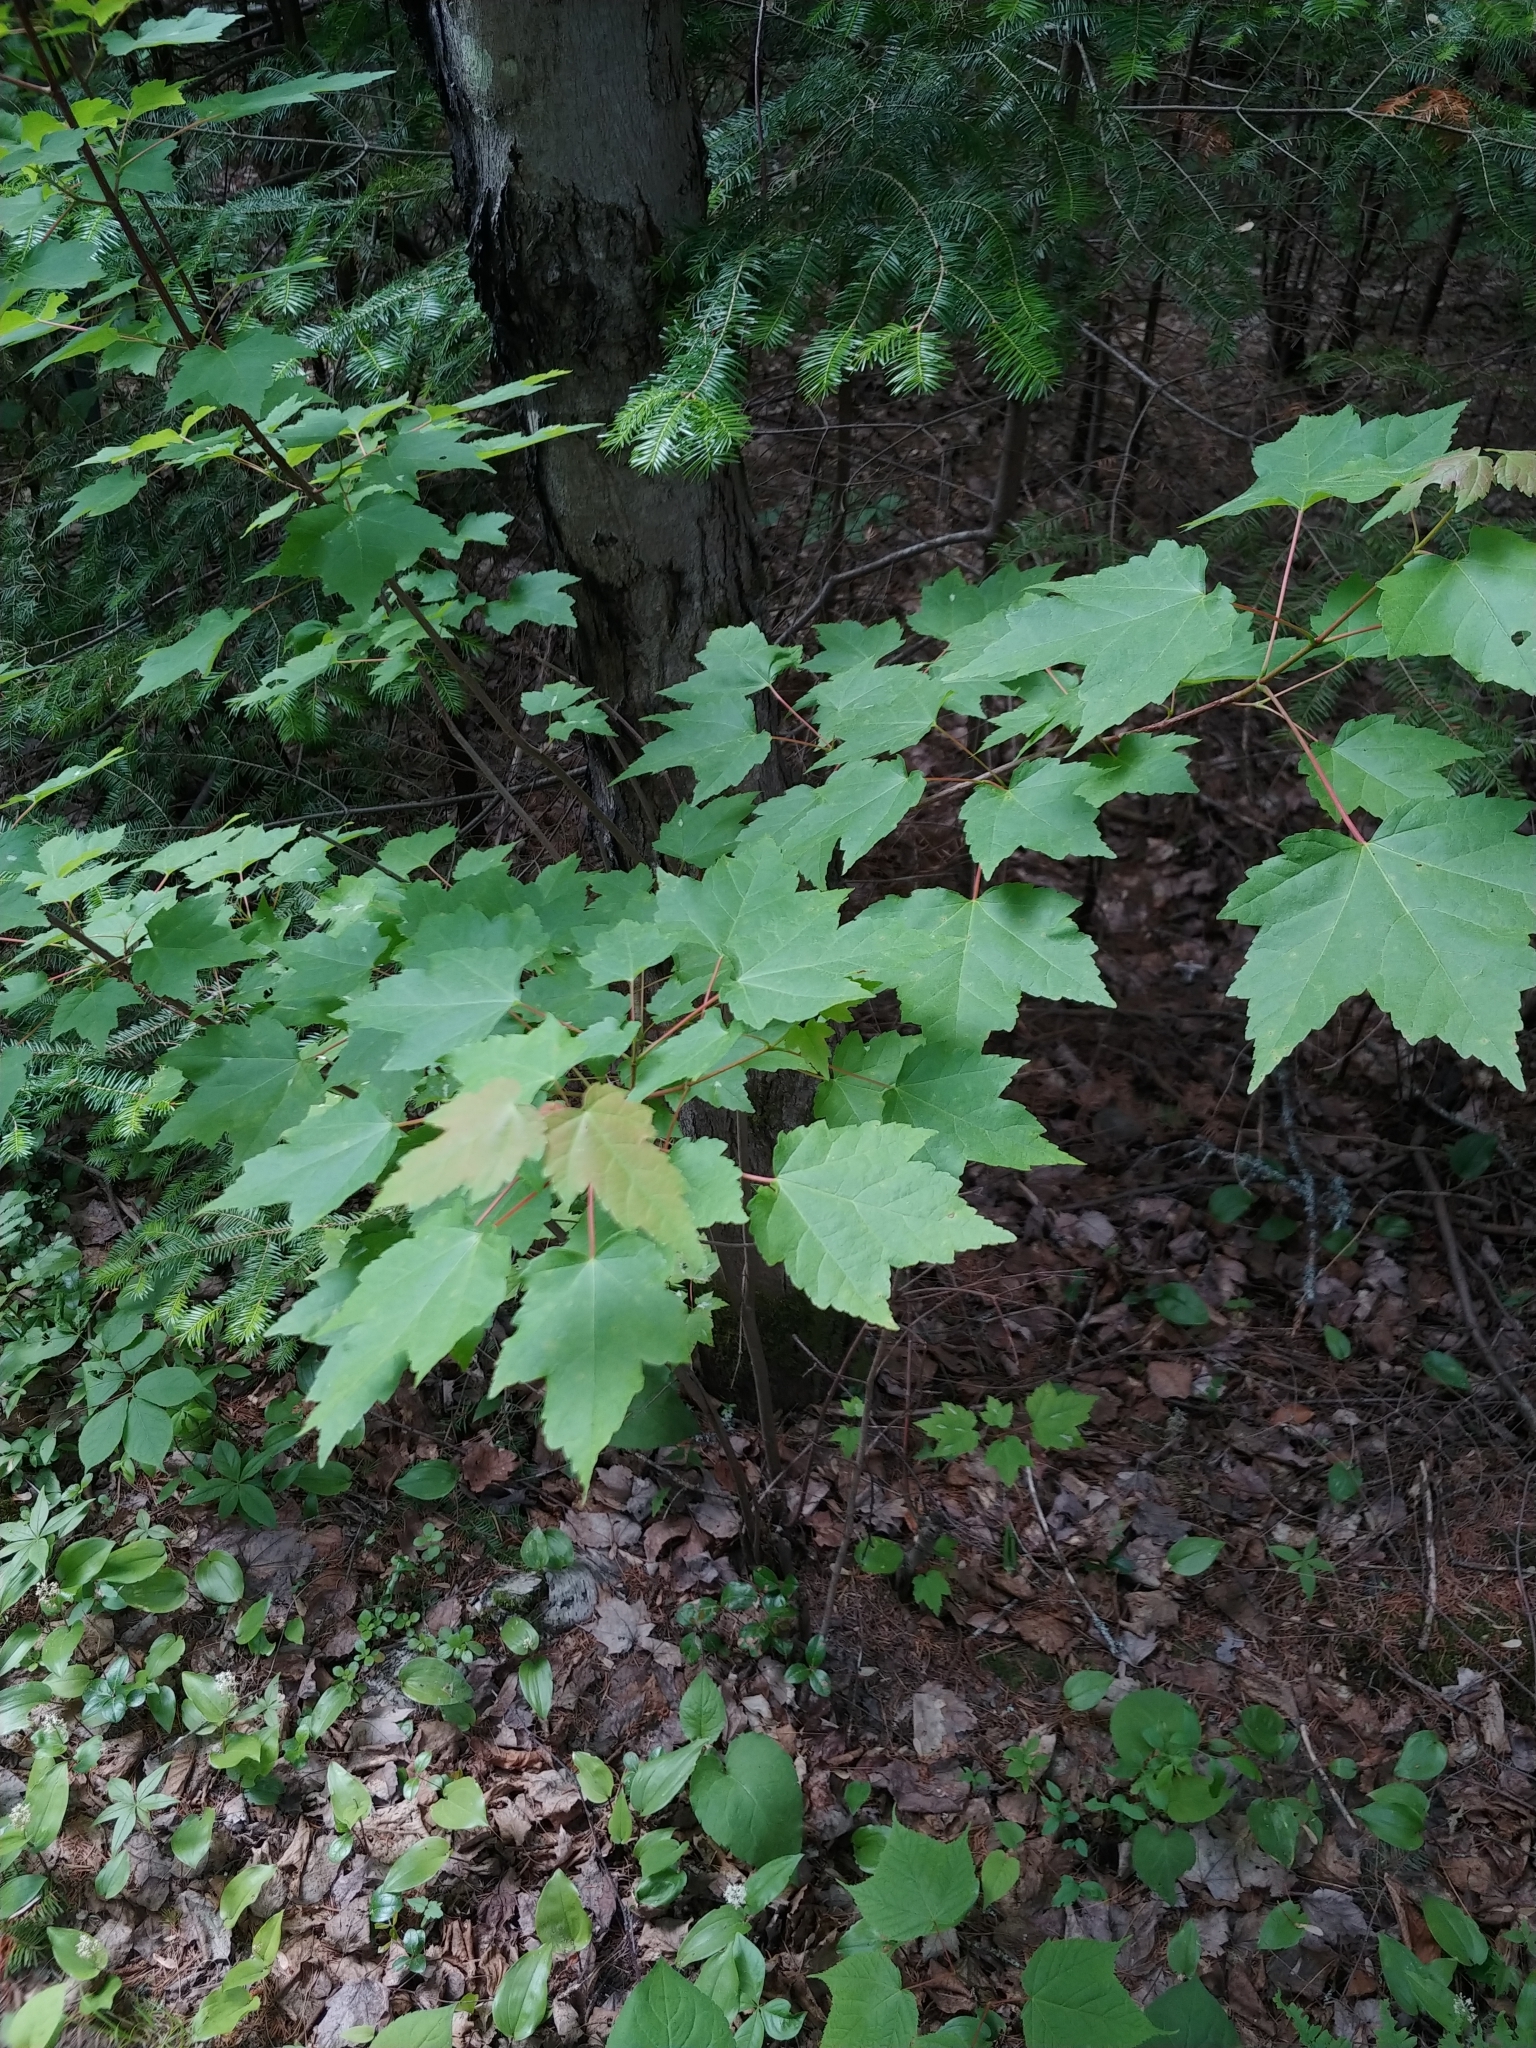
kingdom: Plantae
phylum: Tracheophyta
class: Magnoliopsida
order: Sapindales
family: Sapindaceae
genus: Acer
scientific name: Acer rubrum
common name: Red maple
